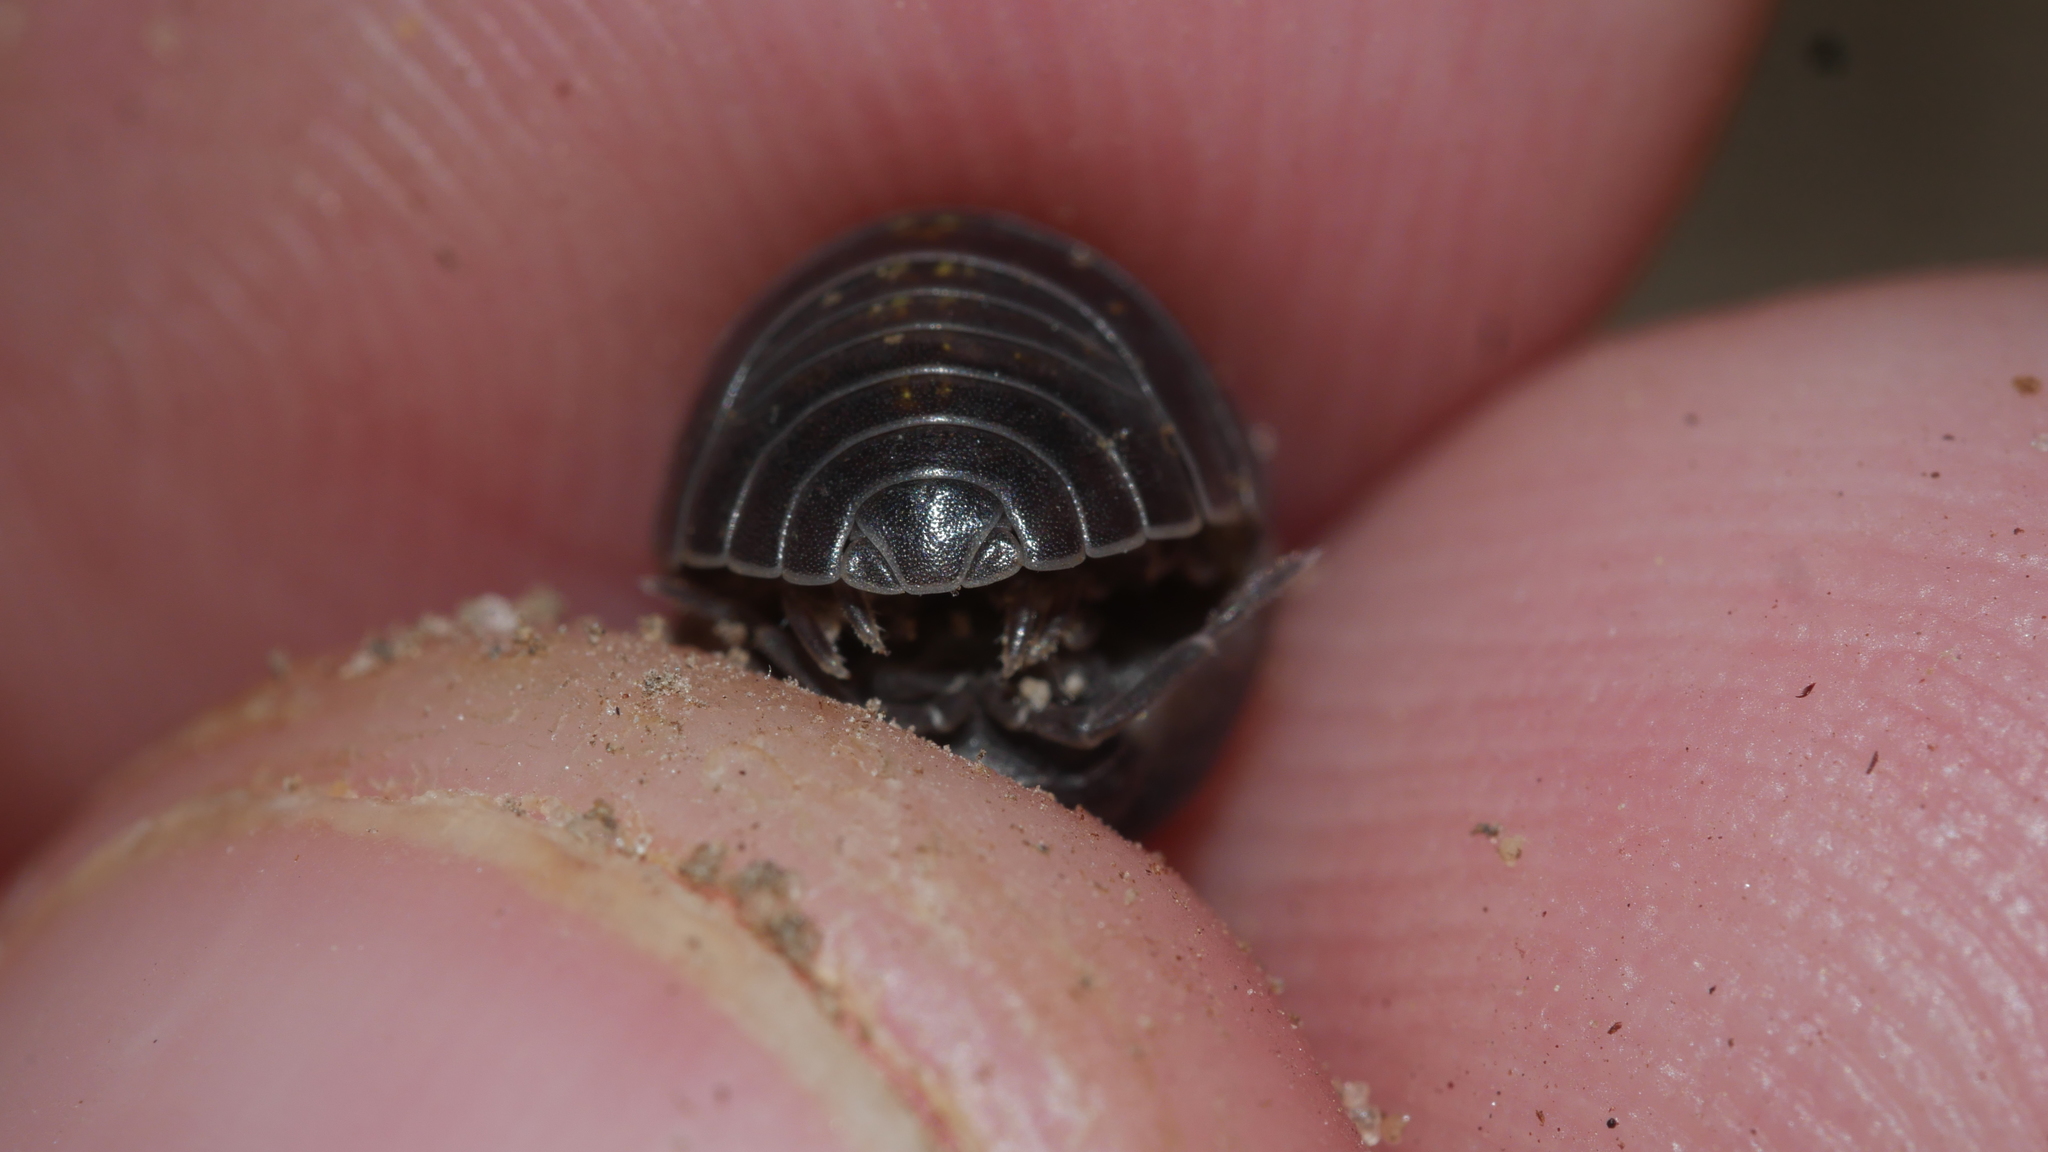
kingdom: Animalia
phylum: Arthropoda
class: Malacostraca
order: Isopoda
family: Armadillidiidae
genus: Armadillidium
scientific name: Armadillidium vulgare
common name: Common pill woodlouse
